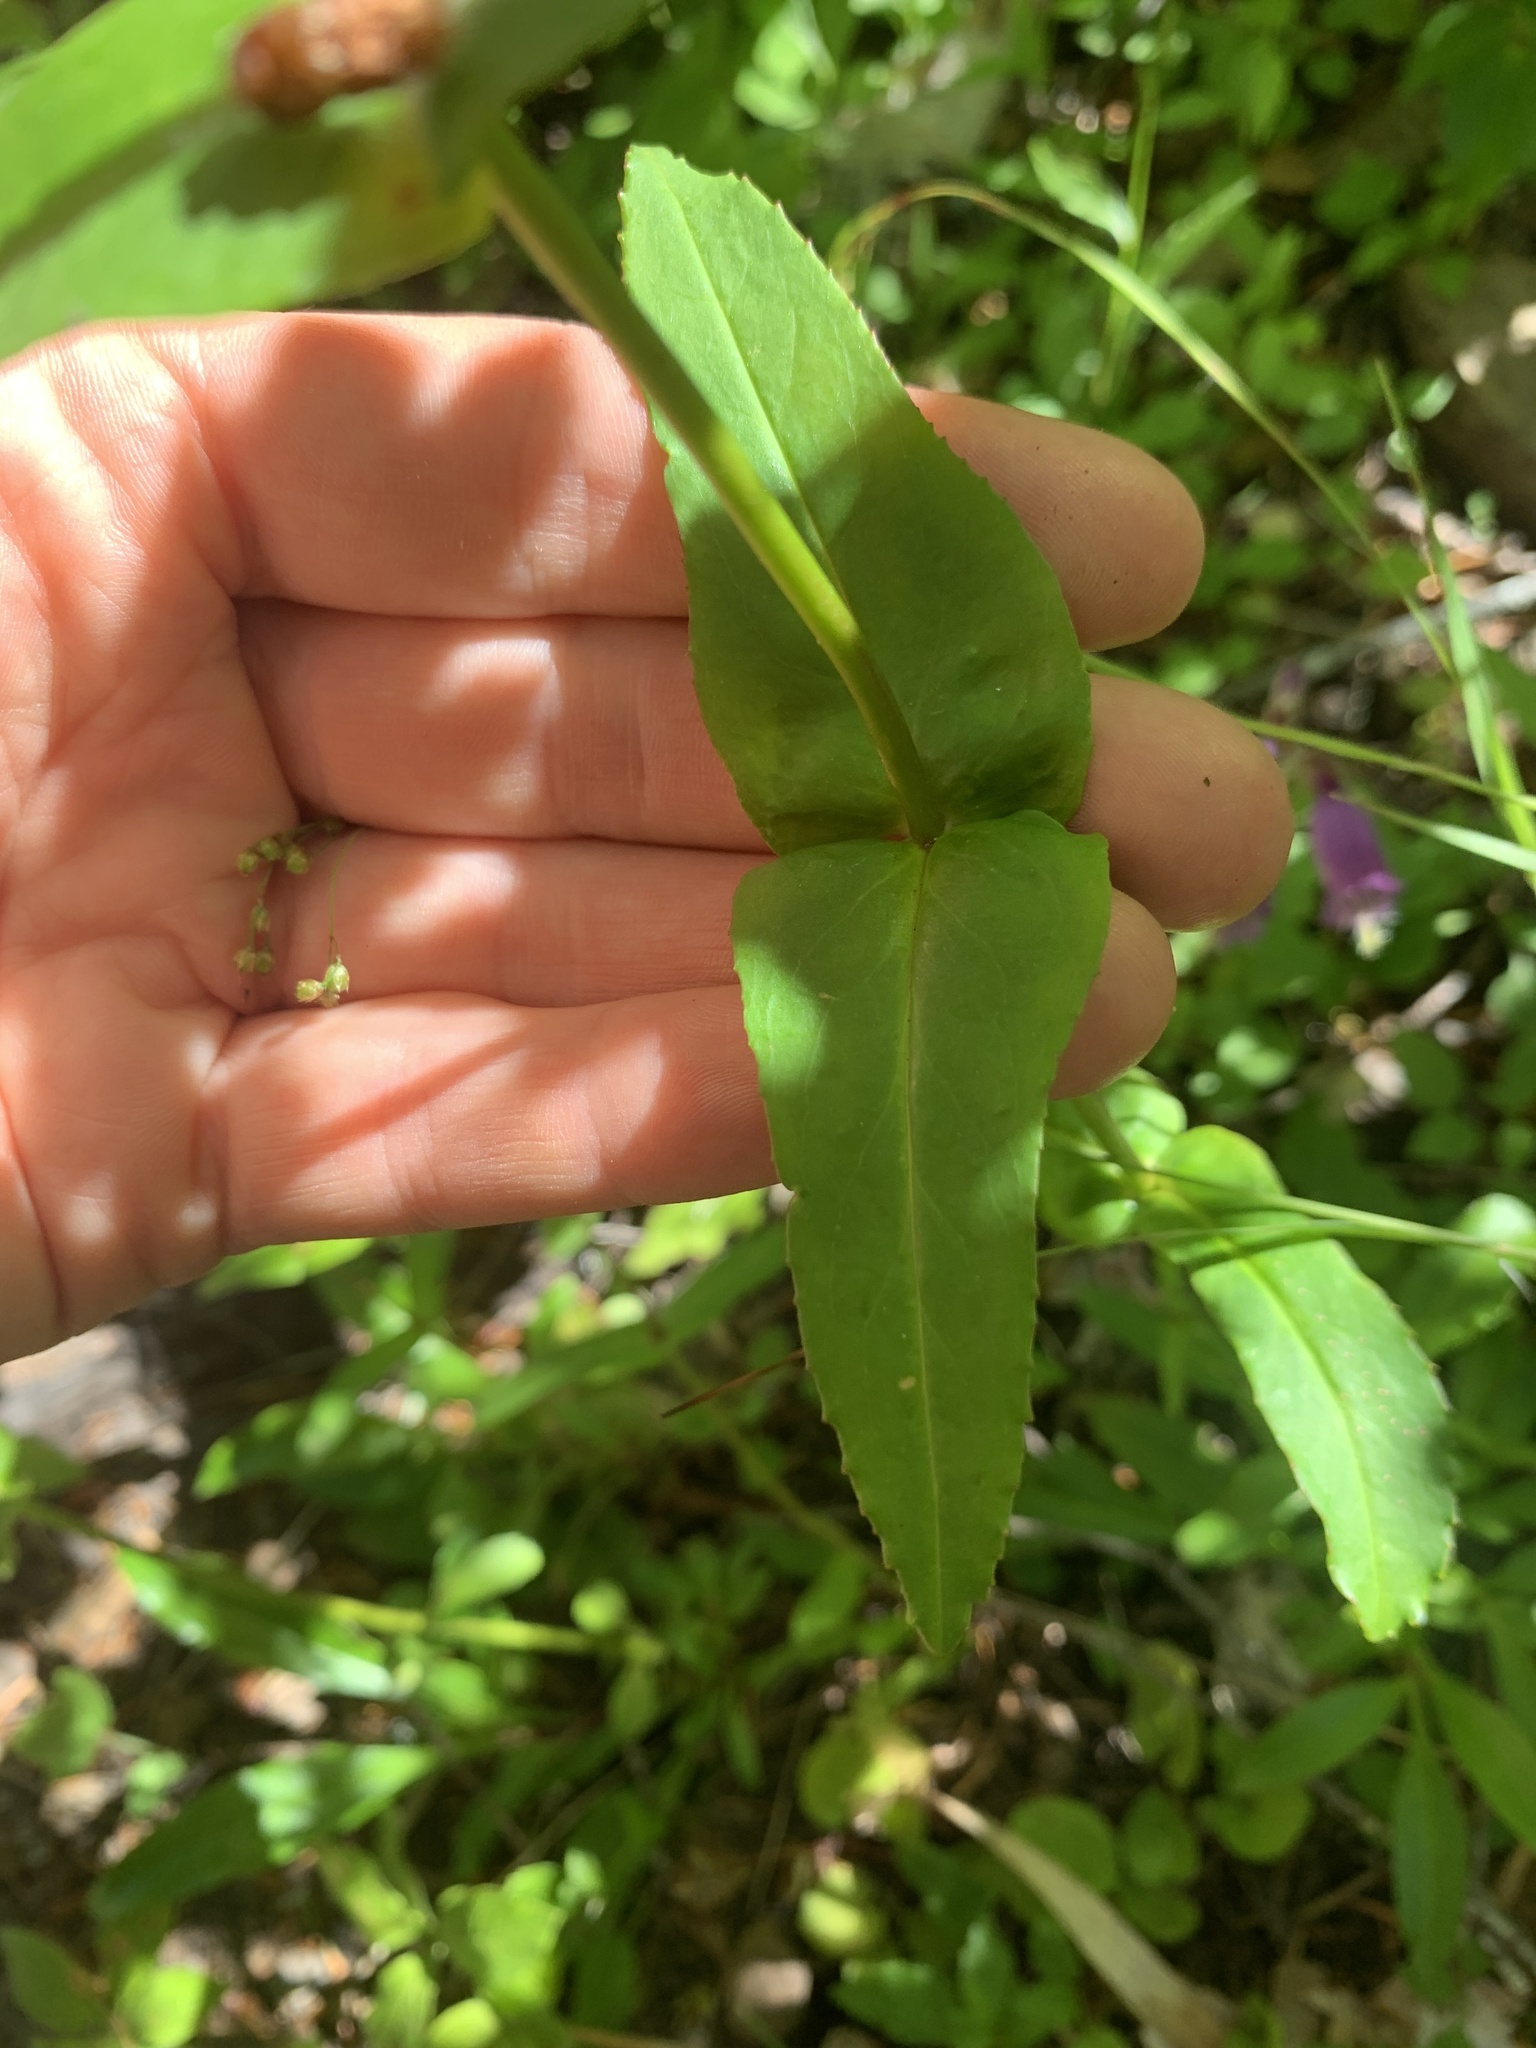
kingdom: Plantae
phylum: Tracheophyta
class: Magnoliopsida
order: Lamiales
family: Plantaginaceae
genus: Penstemon
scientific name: Penstemon rattanii
